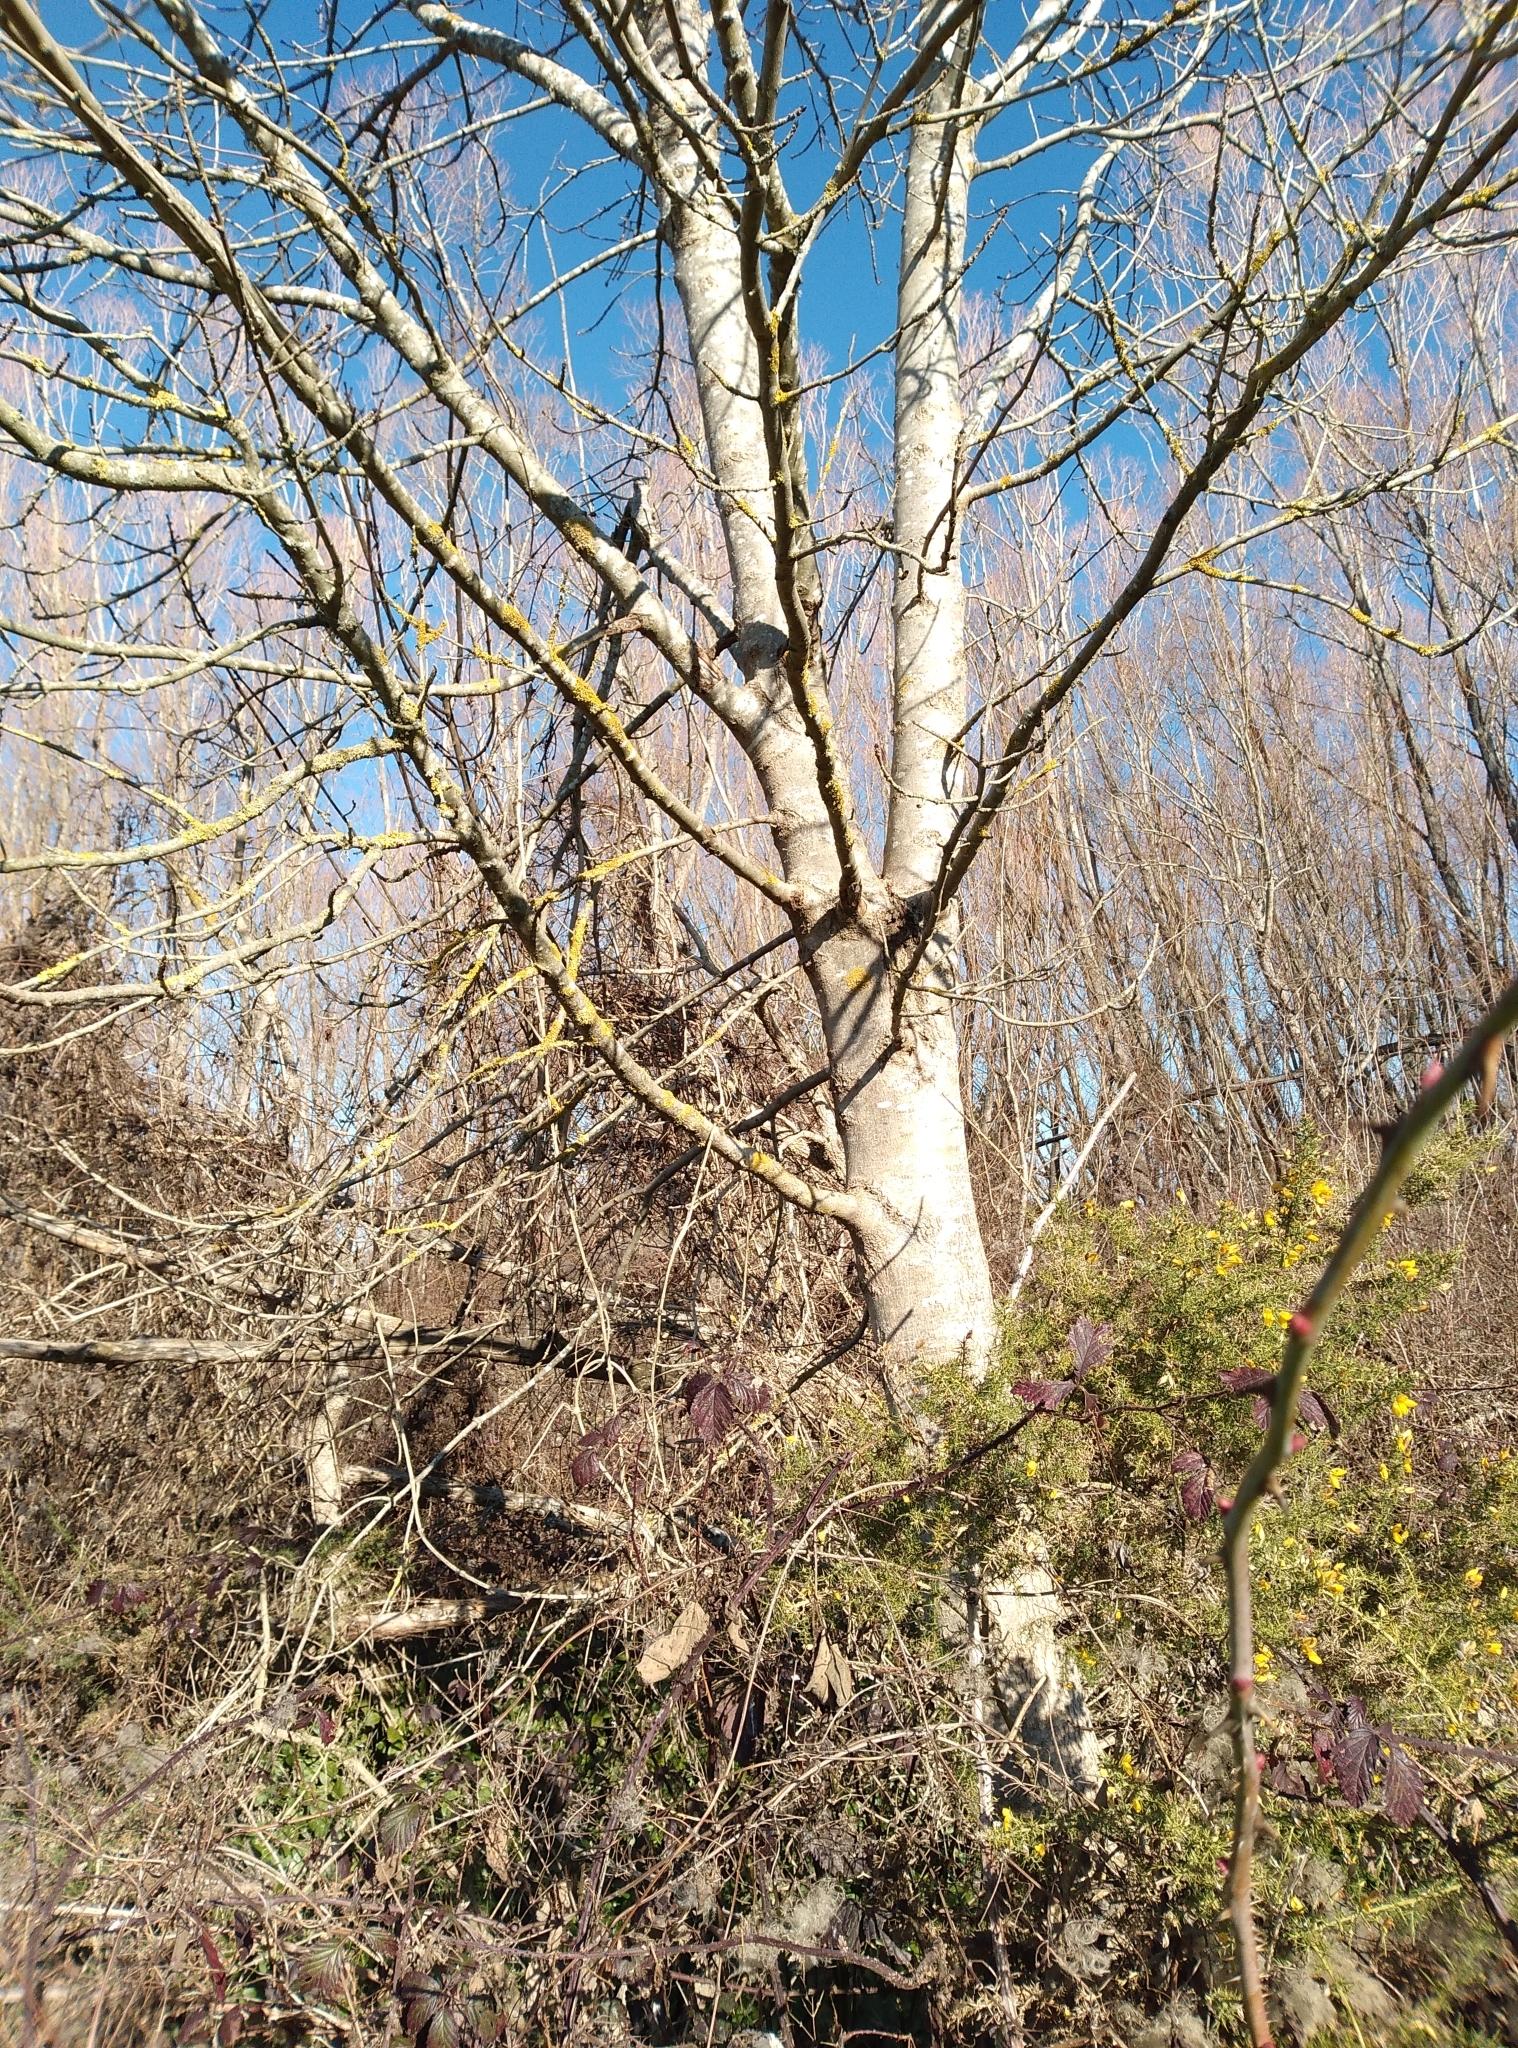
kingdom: Plantae
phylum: Tracheophyta
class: Magnoliopsida
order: Lamiales
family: Oleaceae
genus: Fraxinus
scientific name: Fraxinus excelsior
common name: European ash
